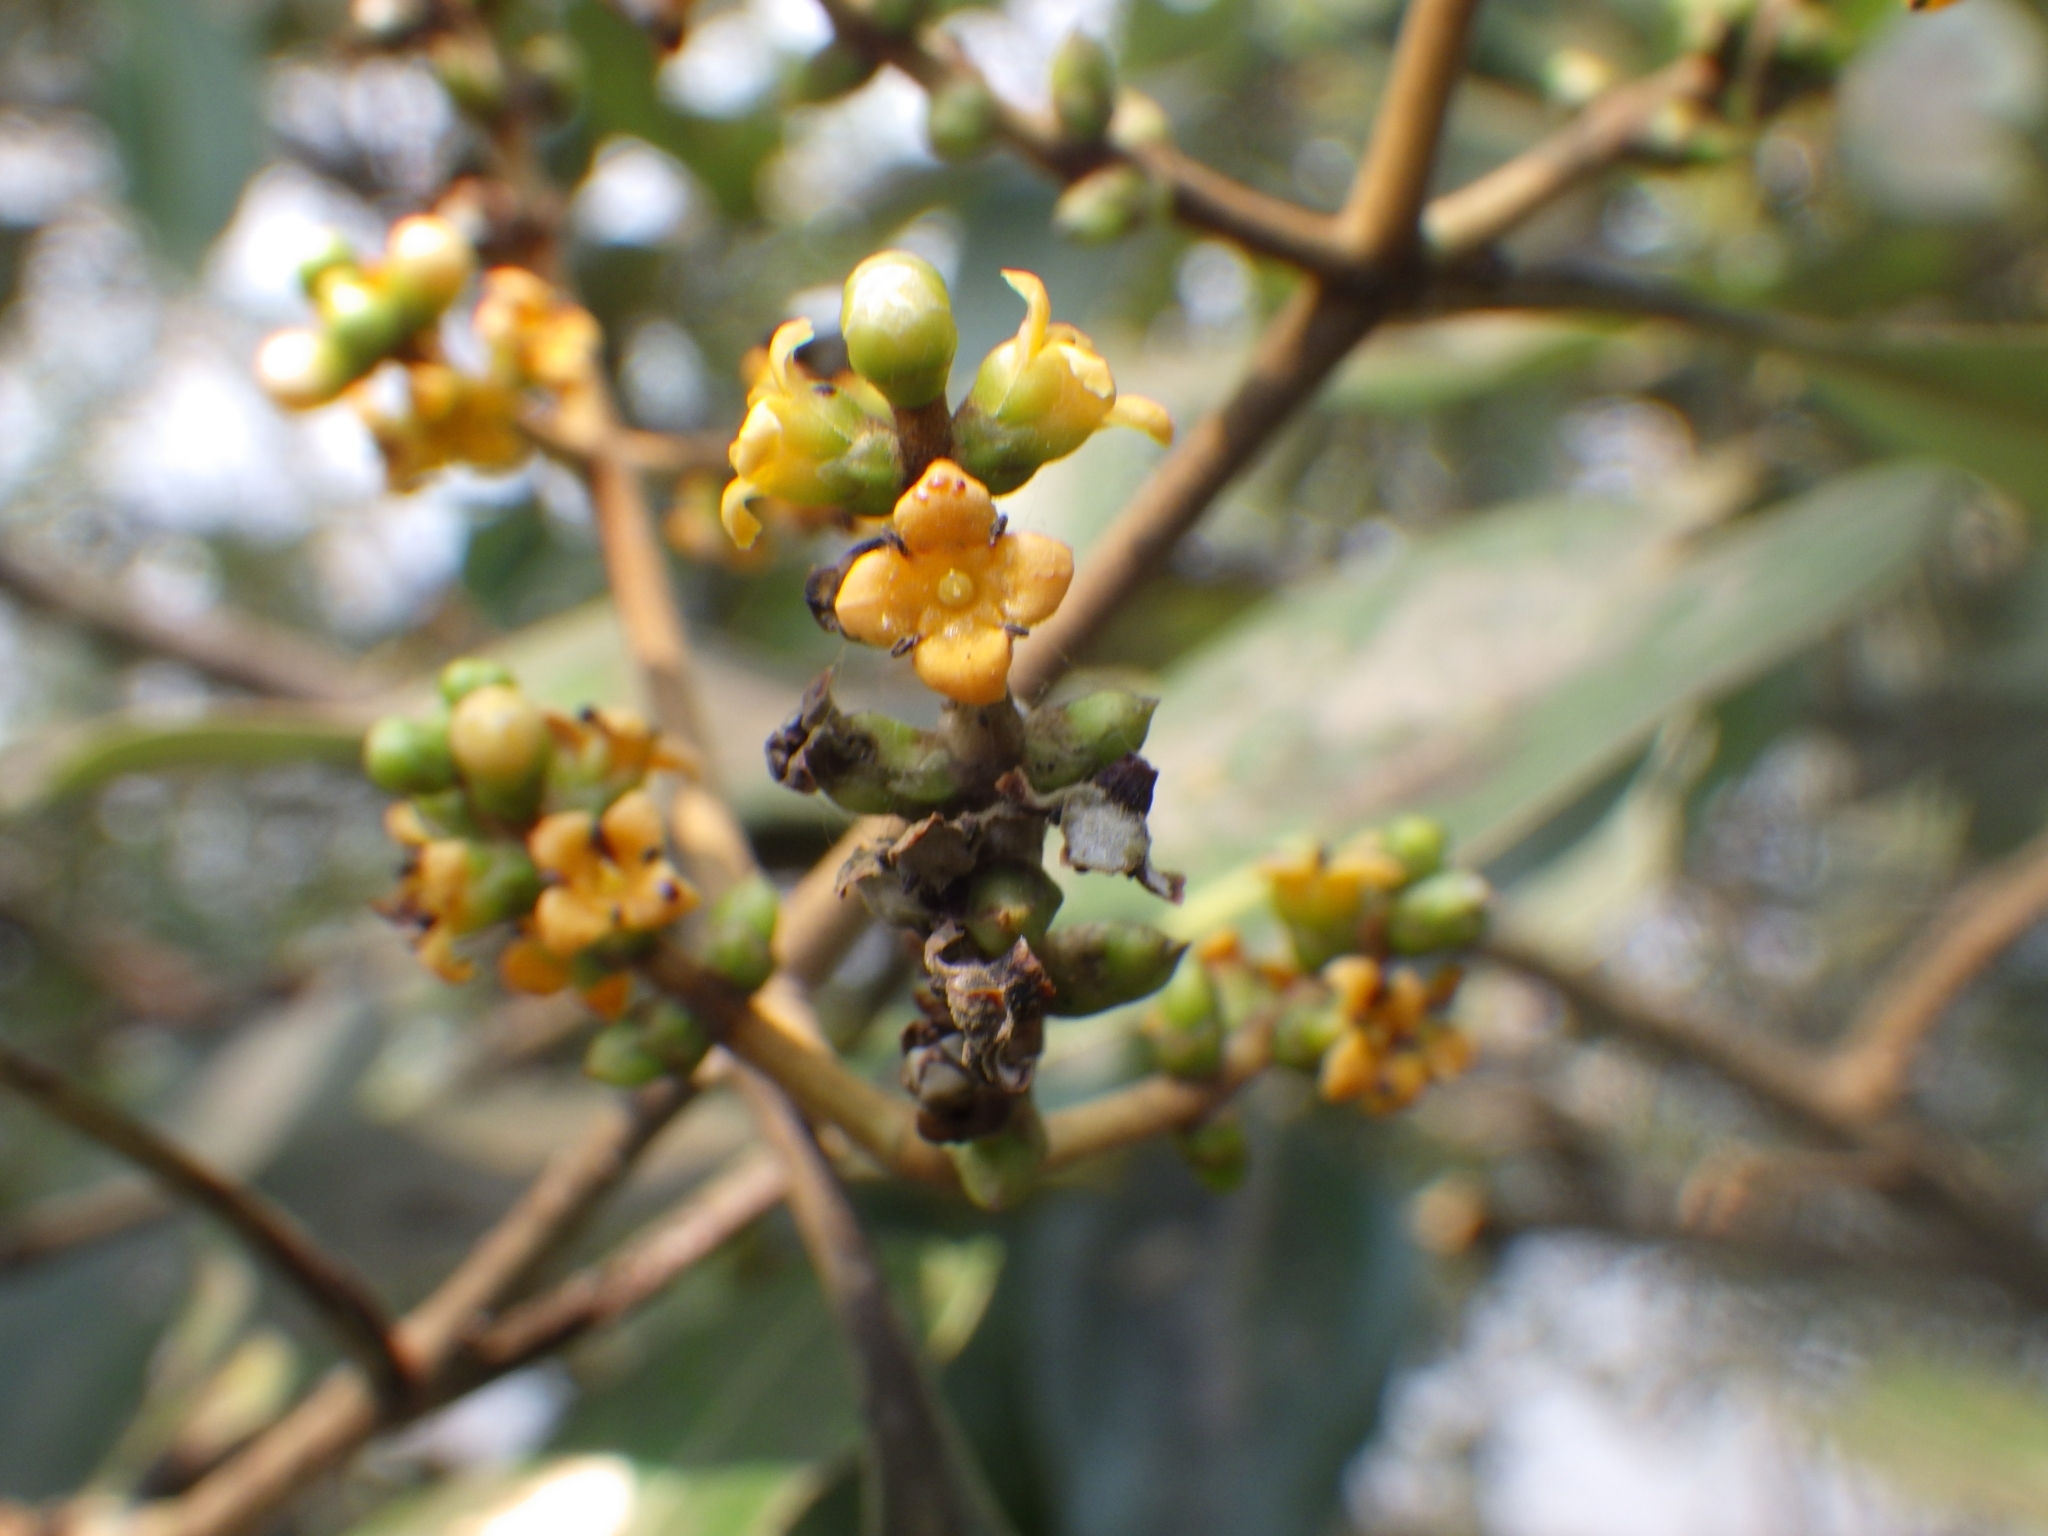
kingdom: Plantae
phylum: Tracheophyta
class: Magnoliopsida
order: Lamiales
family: Acanthaceae
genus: Avicennia
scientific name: Avicennia officinalis
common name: Baen
